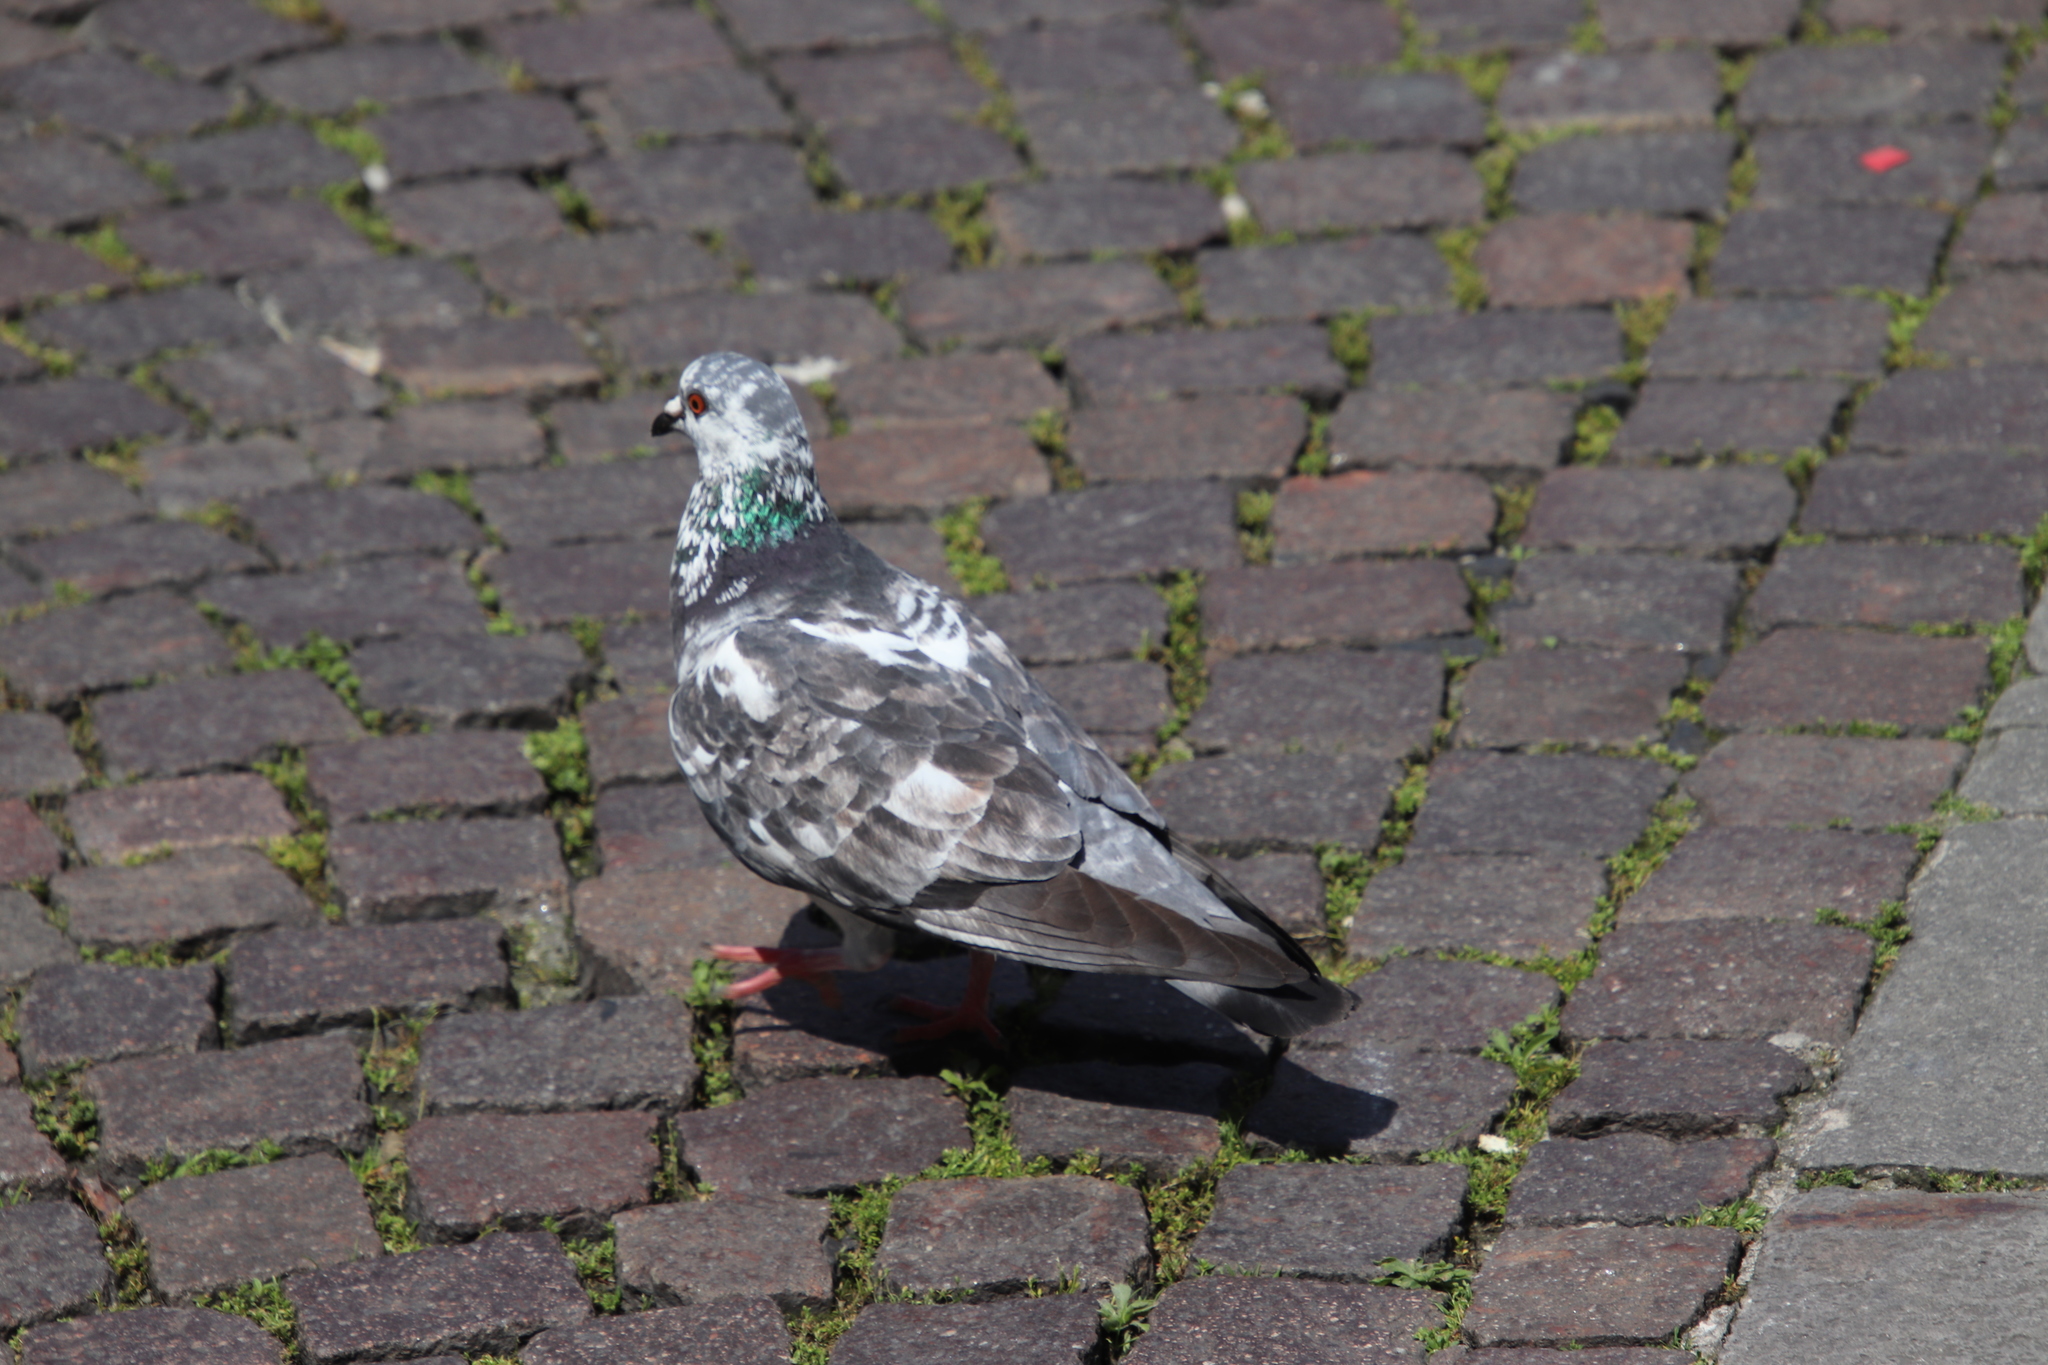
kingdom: Animalia
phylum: Chordata
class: Aves
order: Columbiformes
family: Columbidae
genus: Columba
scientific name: Columba livia
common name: Rock pigeon
